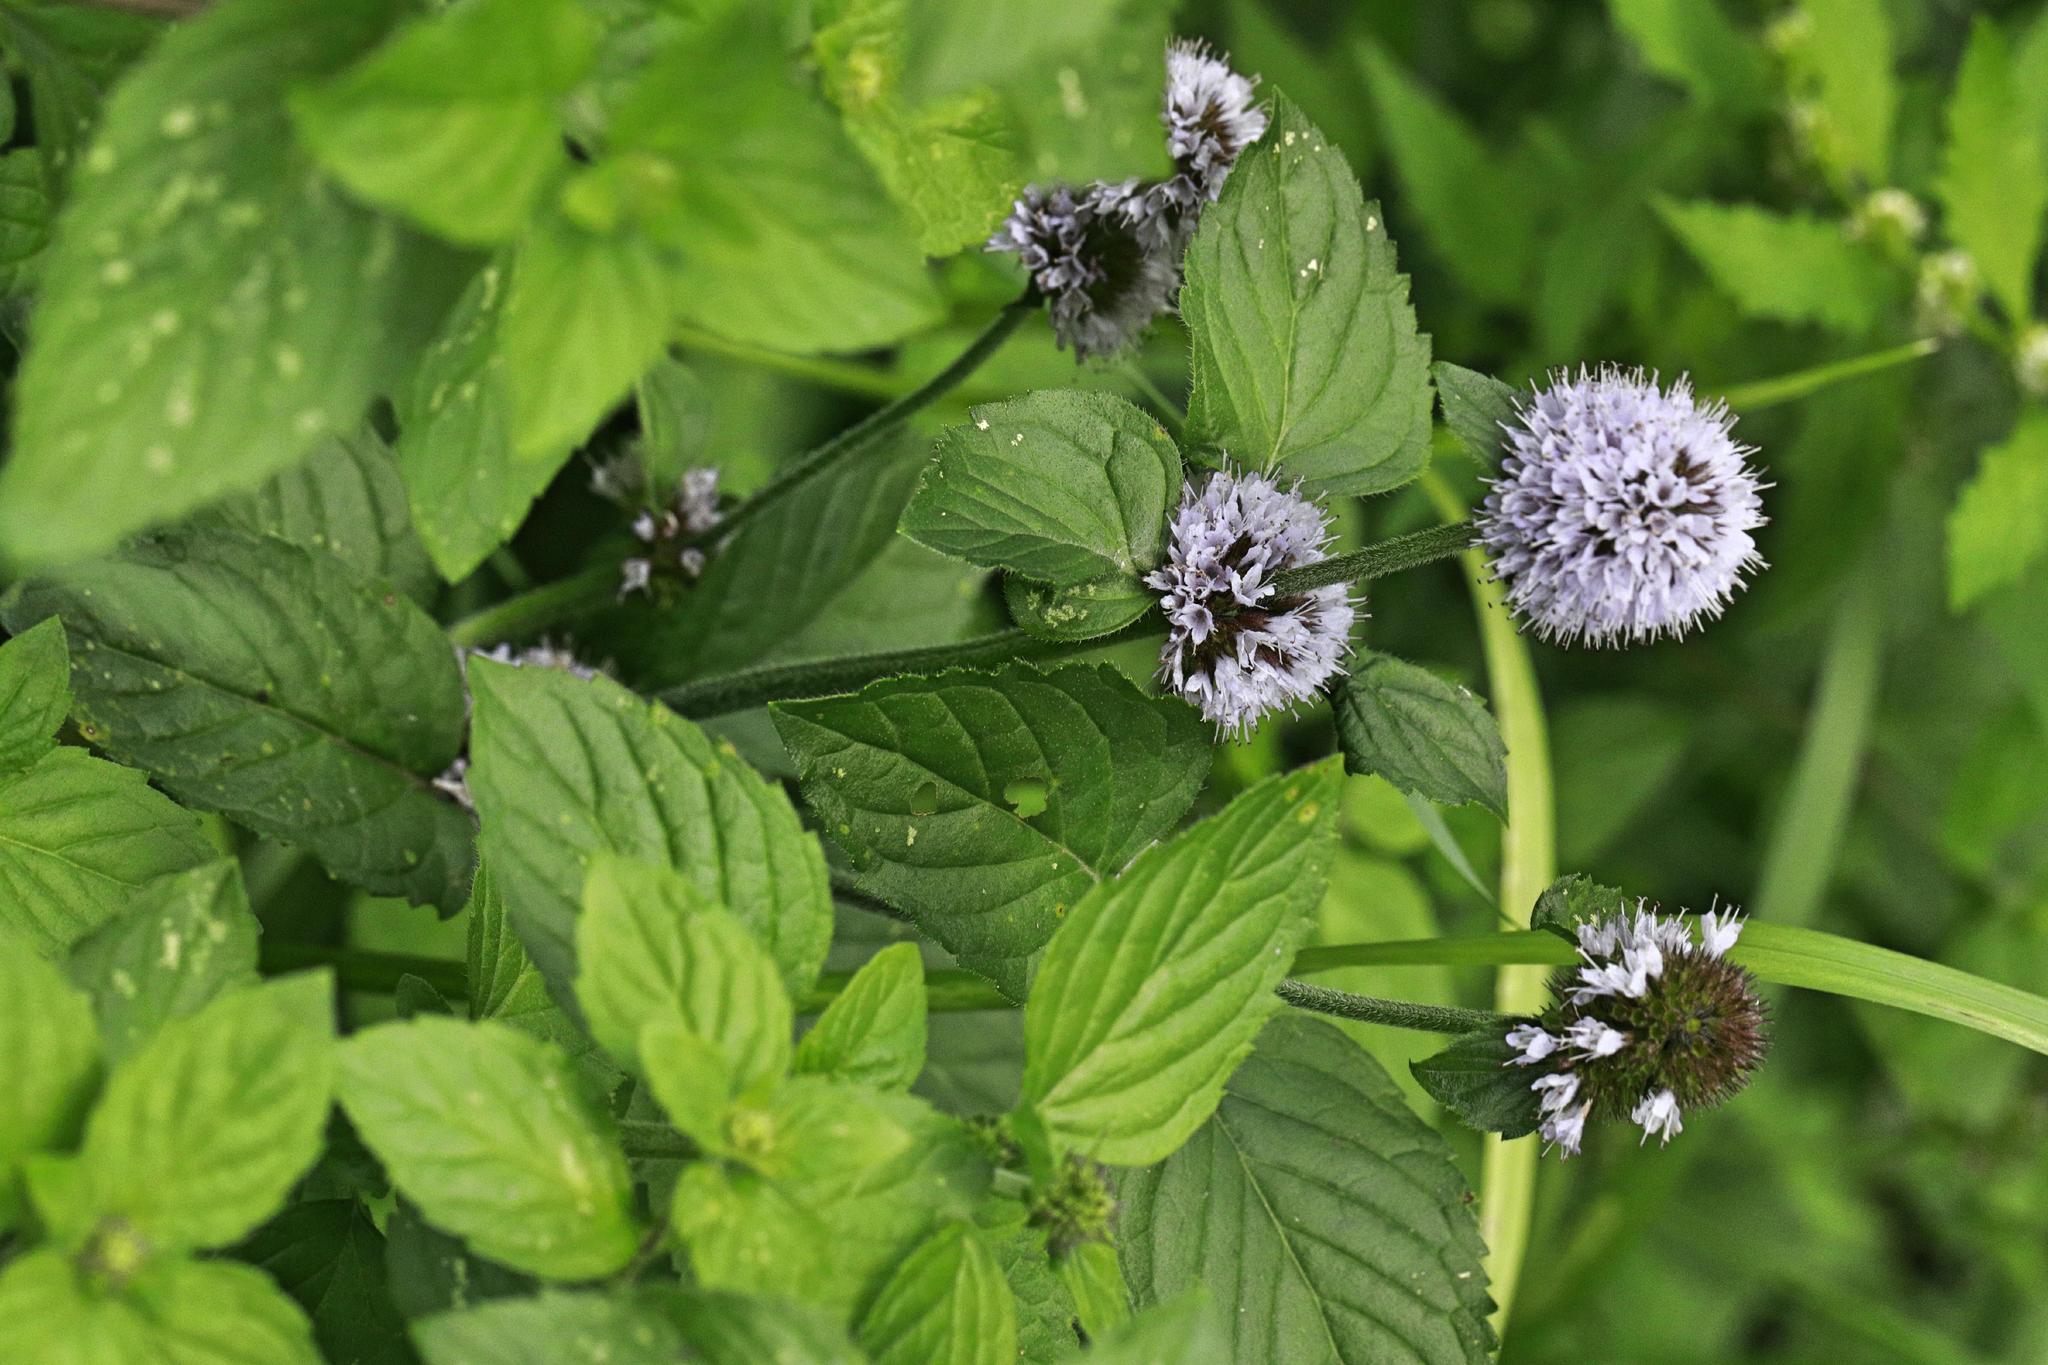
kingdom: Plantae
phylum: Tracheophyta
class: Magnoliopsida
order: Lamiales
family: Lamiaceae
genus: Mentha
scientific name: Mentha aquatica
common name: Water mint
